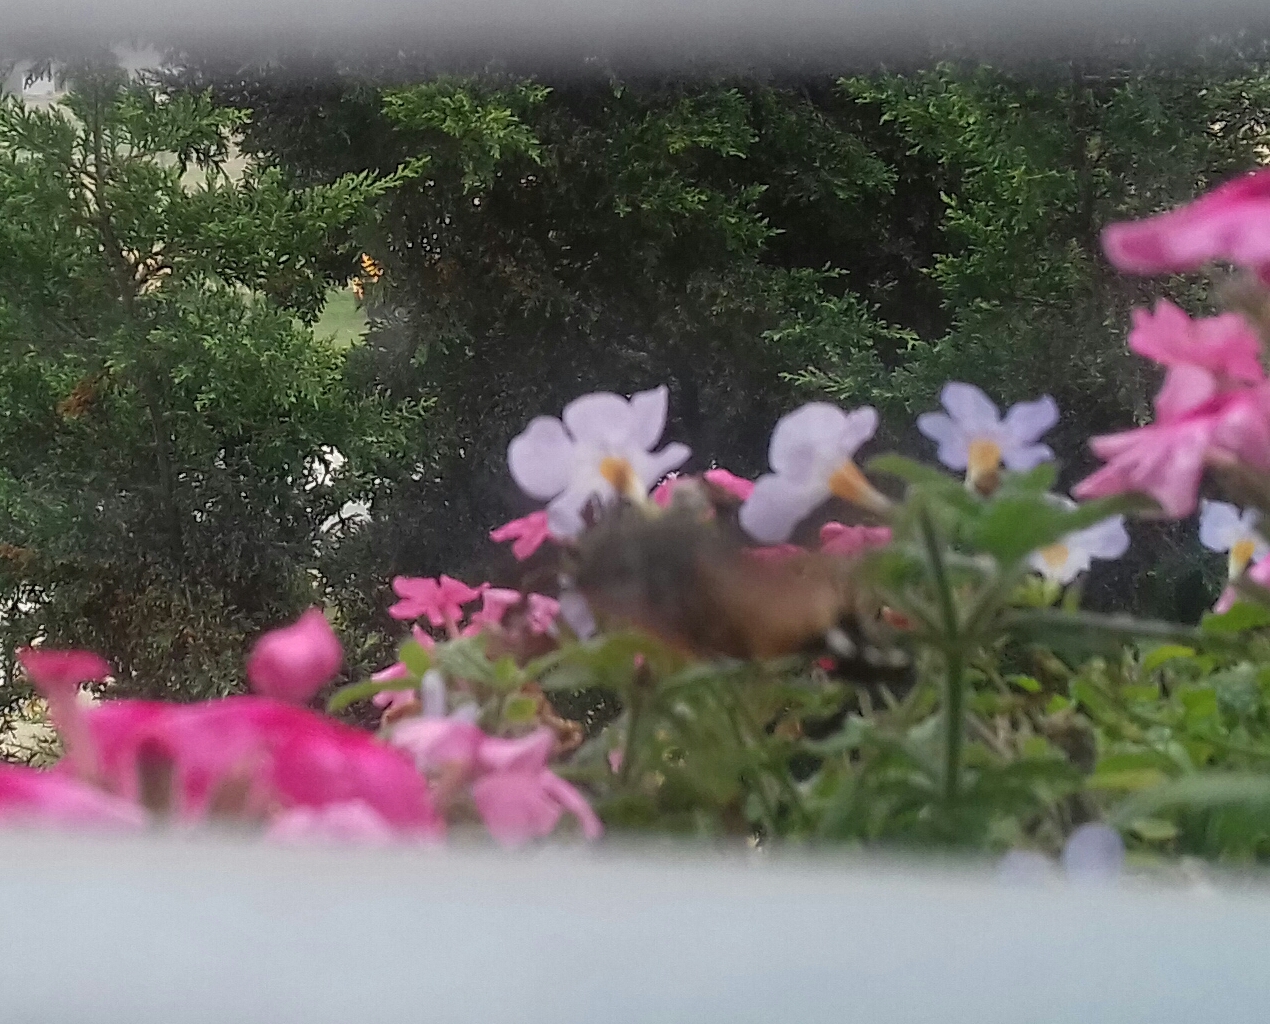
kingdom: Animalia
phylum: Arthropoda
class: Insecta
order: Lepidoptera
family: Sphingidae
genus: Macroglossum
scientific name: Macroglossum stellatarum
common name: Humming-bird hawk-moth
